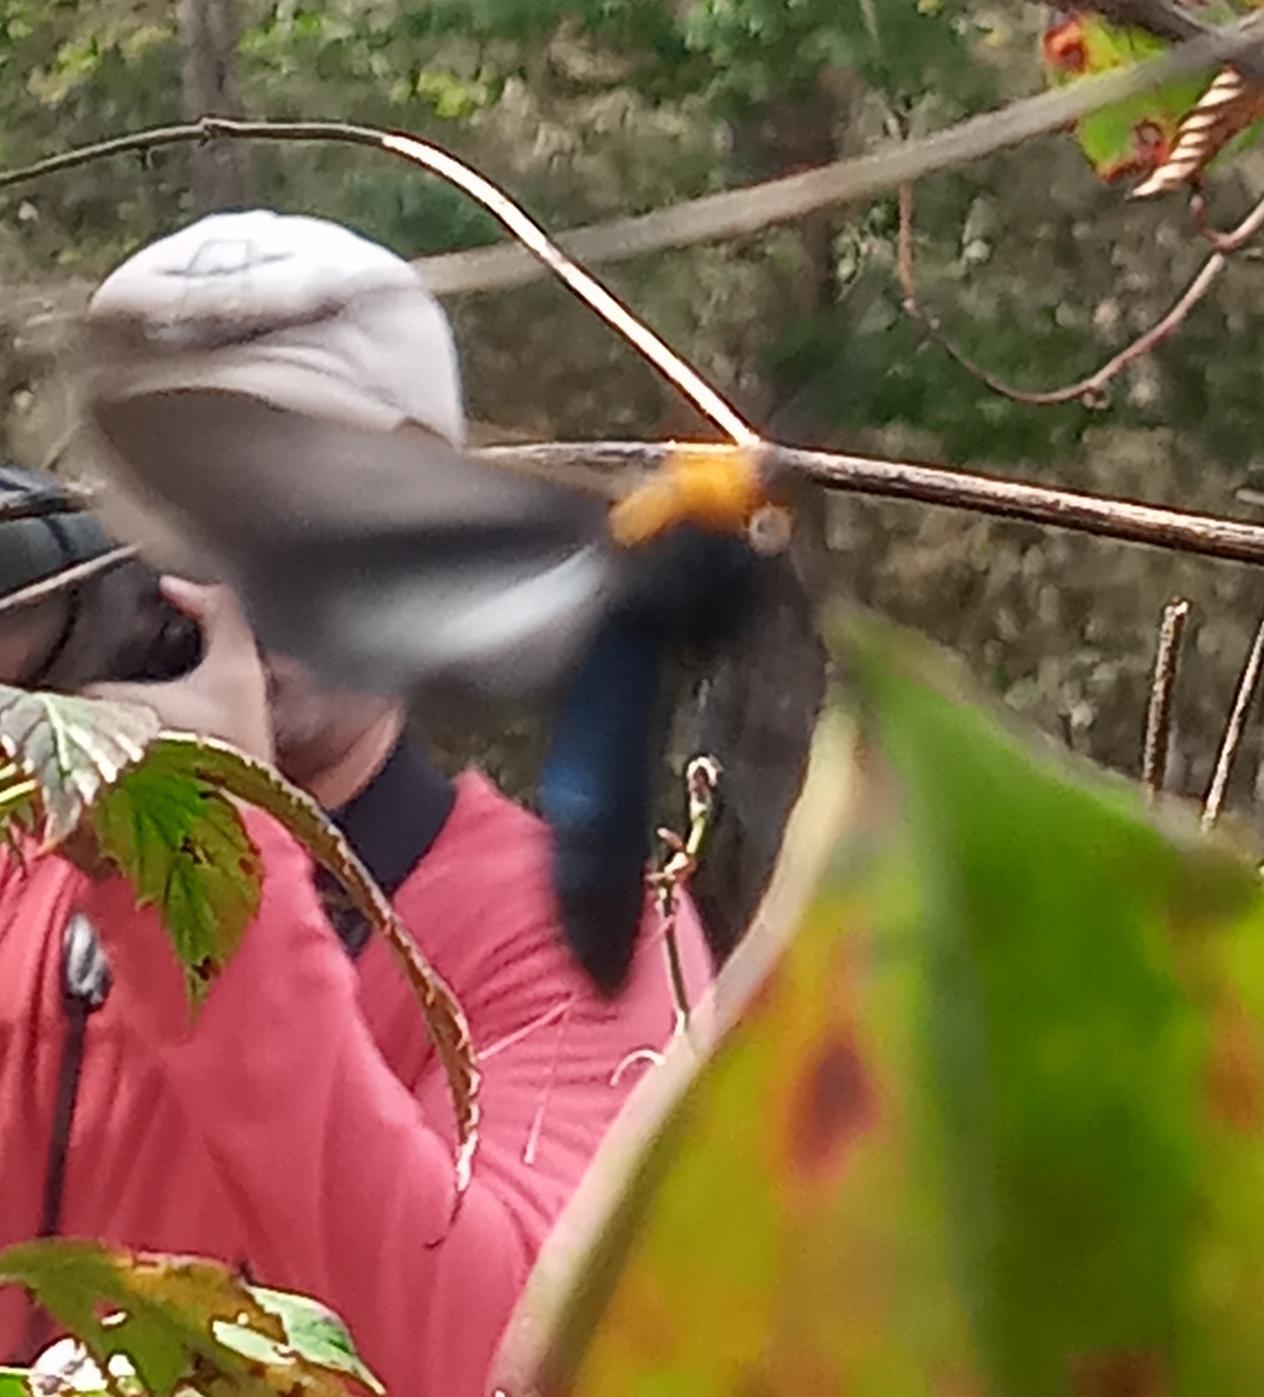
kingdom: Animalia
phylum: Arthropoda
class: Insecta
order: Lepidoptera
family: Erebidae
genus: Cisseps
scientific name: Cisseps fulvicollis
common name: Yellow-collared scape moth
